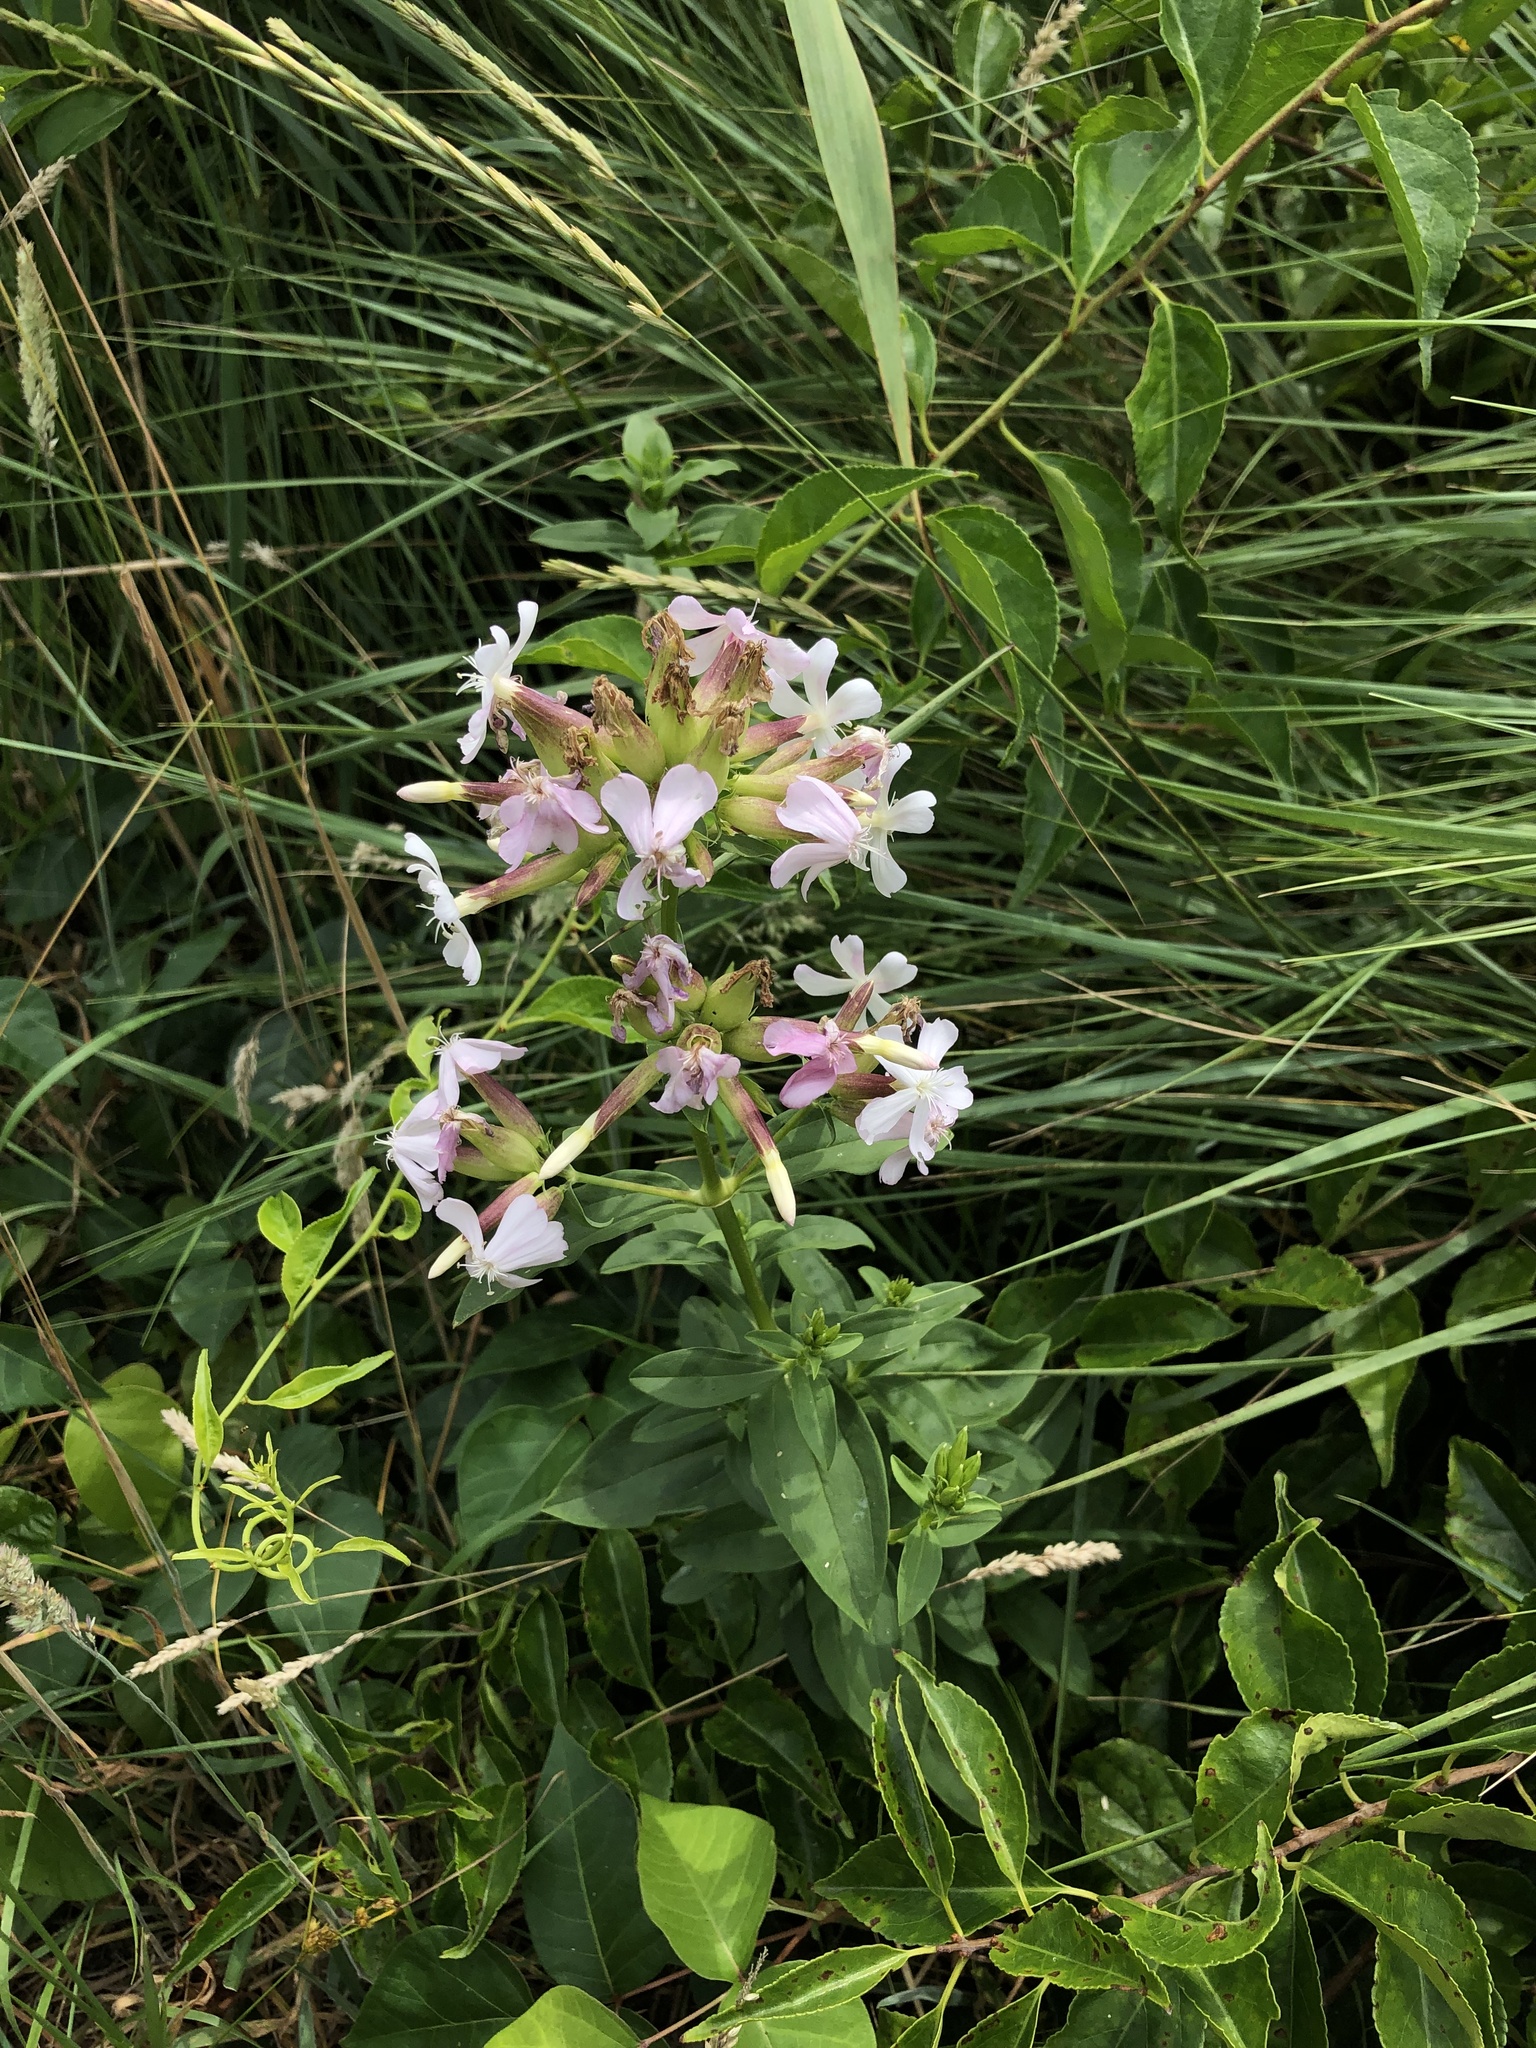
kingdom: Plantae
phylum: Tracheophyta
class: Magnoliopsida
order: Caryophyllales
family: Caryophyllaceae
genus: Saponaria
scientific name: Saponaria officinalis
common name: Soapwort
